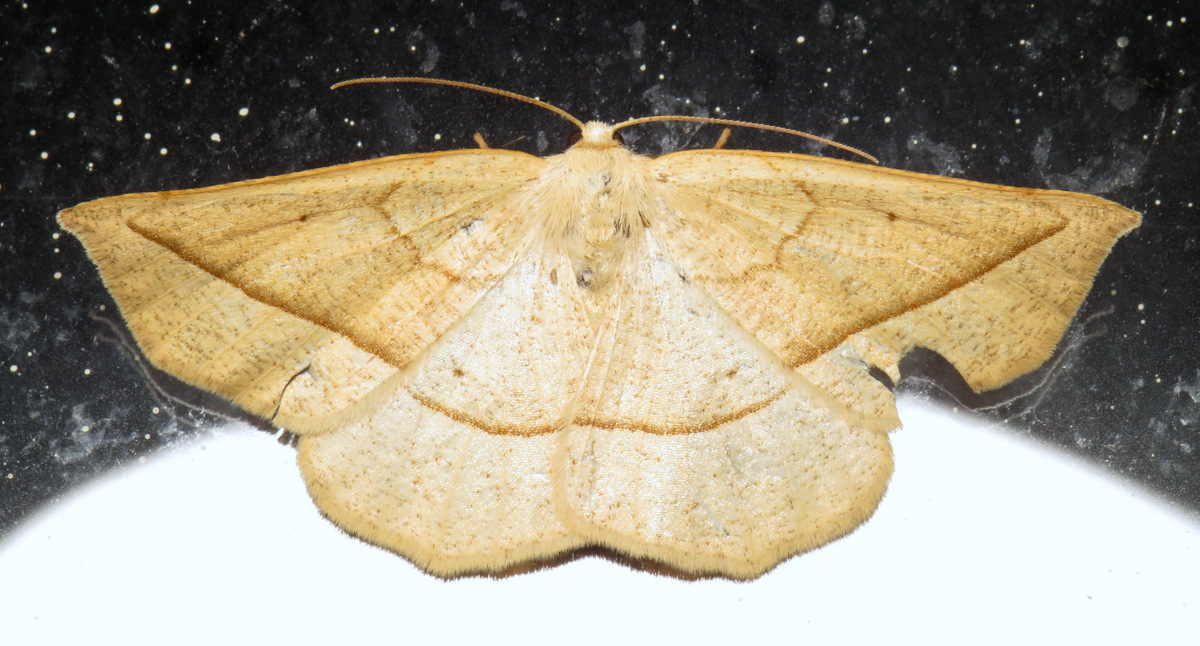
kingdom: Animalia
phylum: Arthropoda
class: Insecta
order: Lepidoptera
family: Geometridae
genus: Eusarca
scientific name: Eusarca confusaria
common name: Confused eusarca
